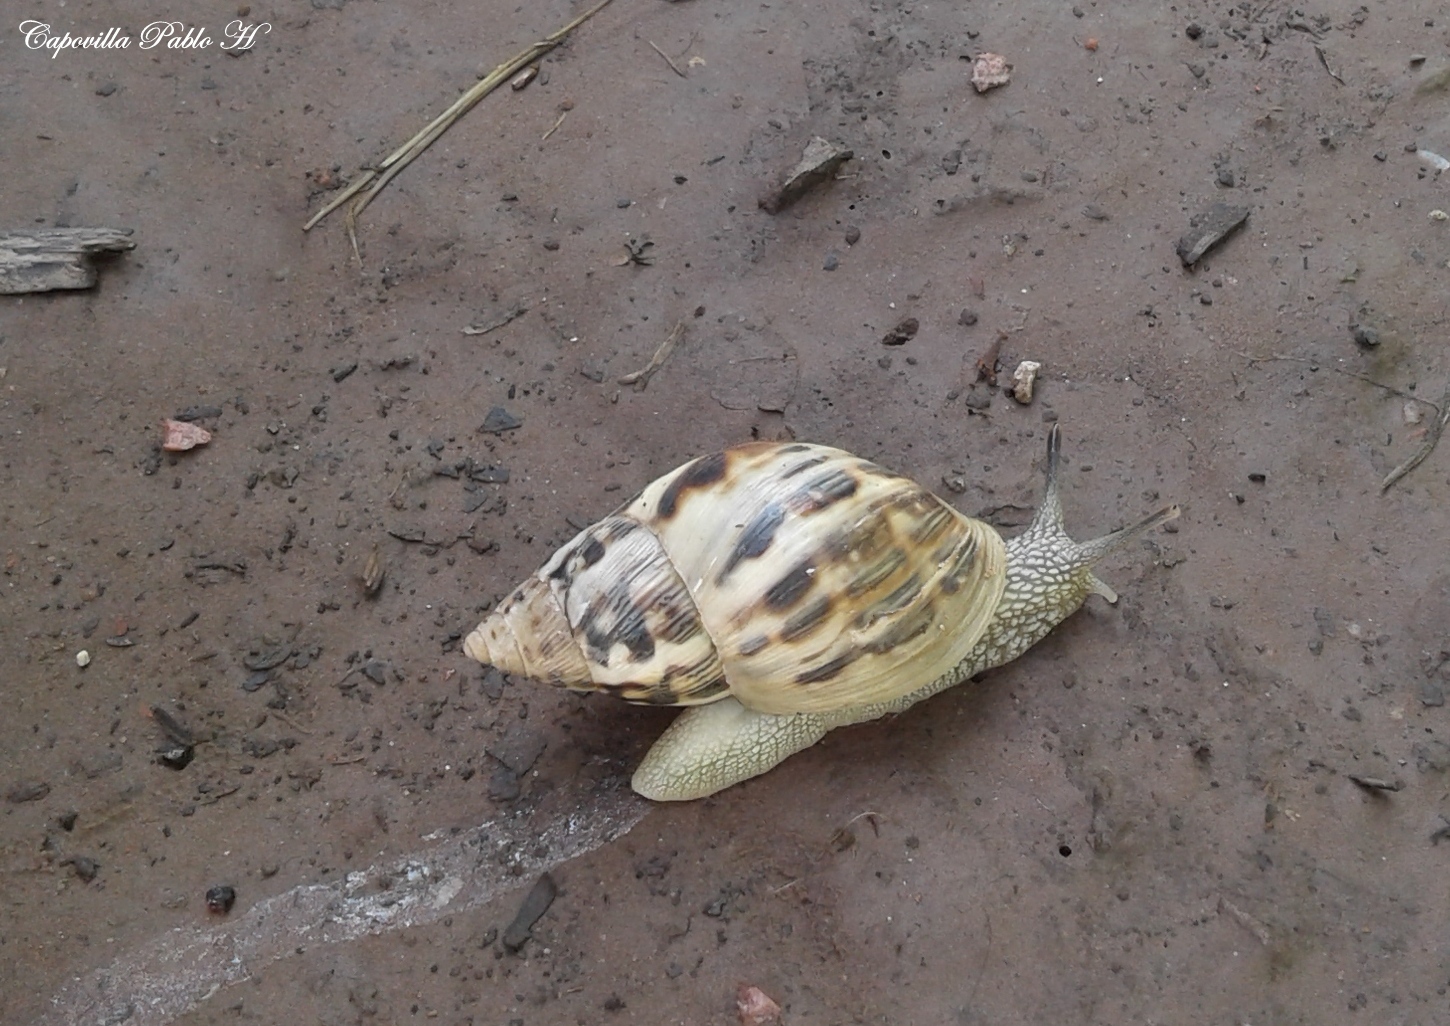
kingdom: Animalia
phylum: Mollusca
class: Gastropoda
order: Stylommatophora
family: Bulimulidae
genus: Drymaeus
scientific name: Drymaeus papyraceus
